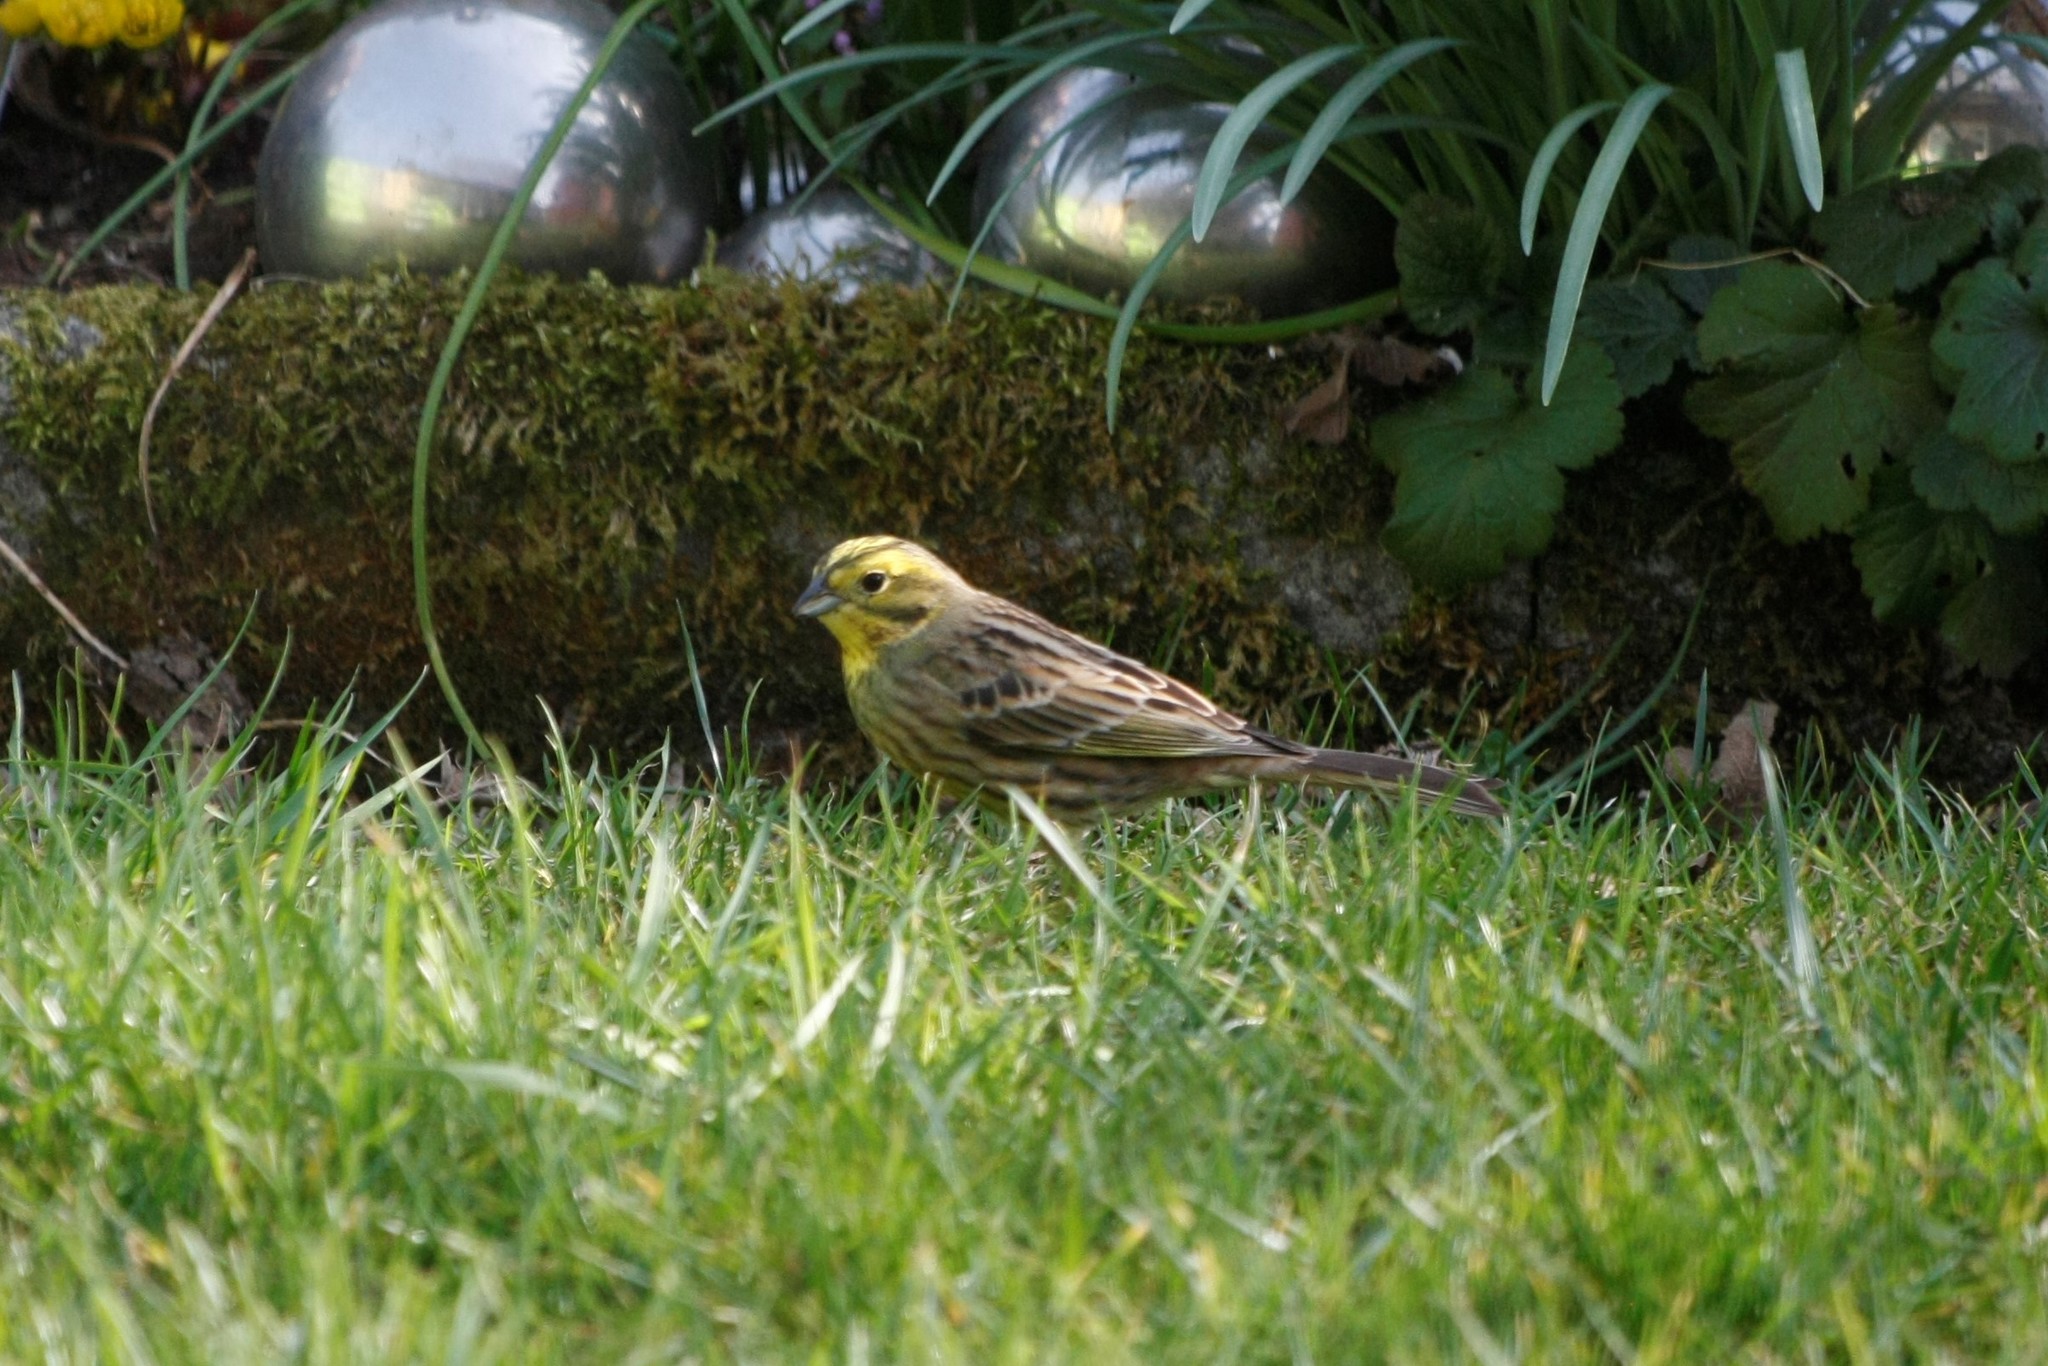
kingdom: Animalia
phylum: Chordata
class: Aves
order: Passeriformes
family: Emberizidae
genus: Emberiza
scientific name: Emberiza citrinella
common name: Yellowhammer
